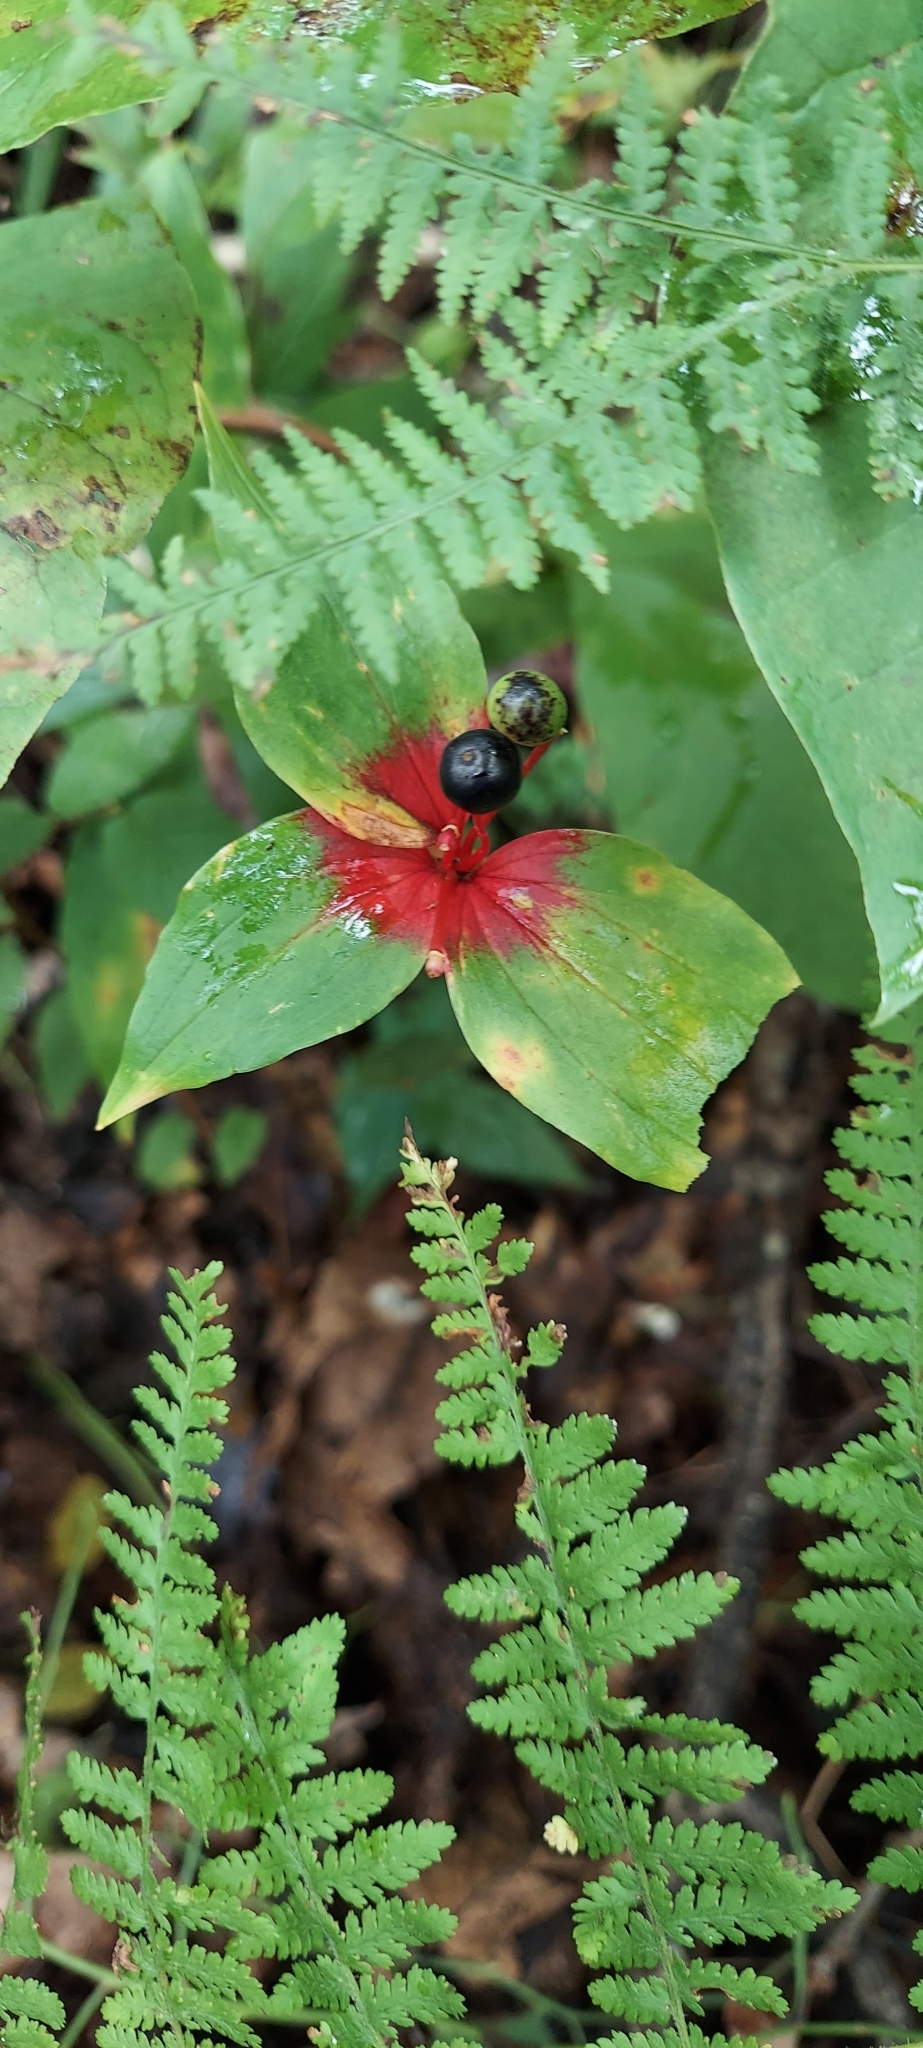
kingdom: Plantae
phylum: Tracheophyta
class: Liliopsida
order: Liliales
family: Liliaceae
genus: Medeola
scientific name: Medeola virginiana
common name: Indian cucumber-root
